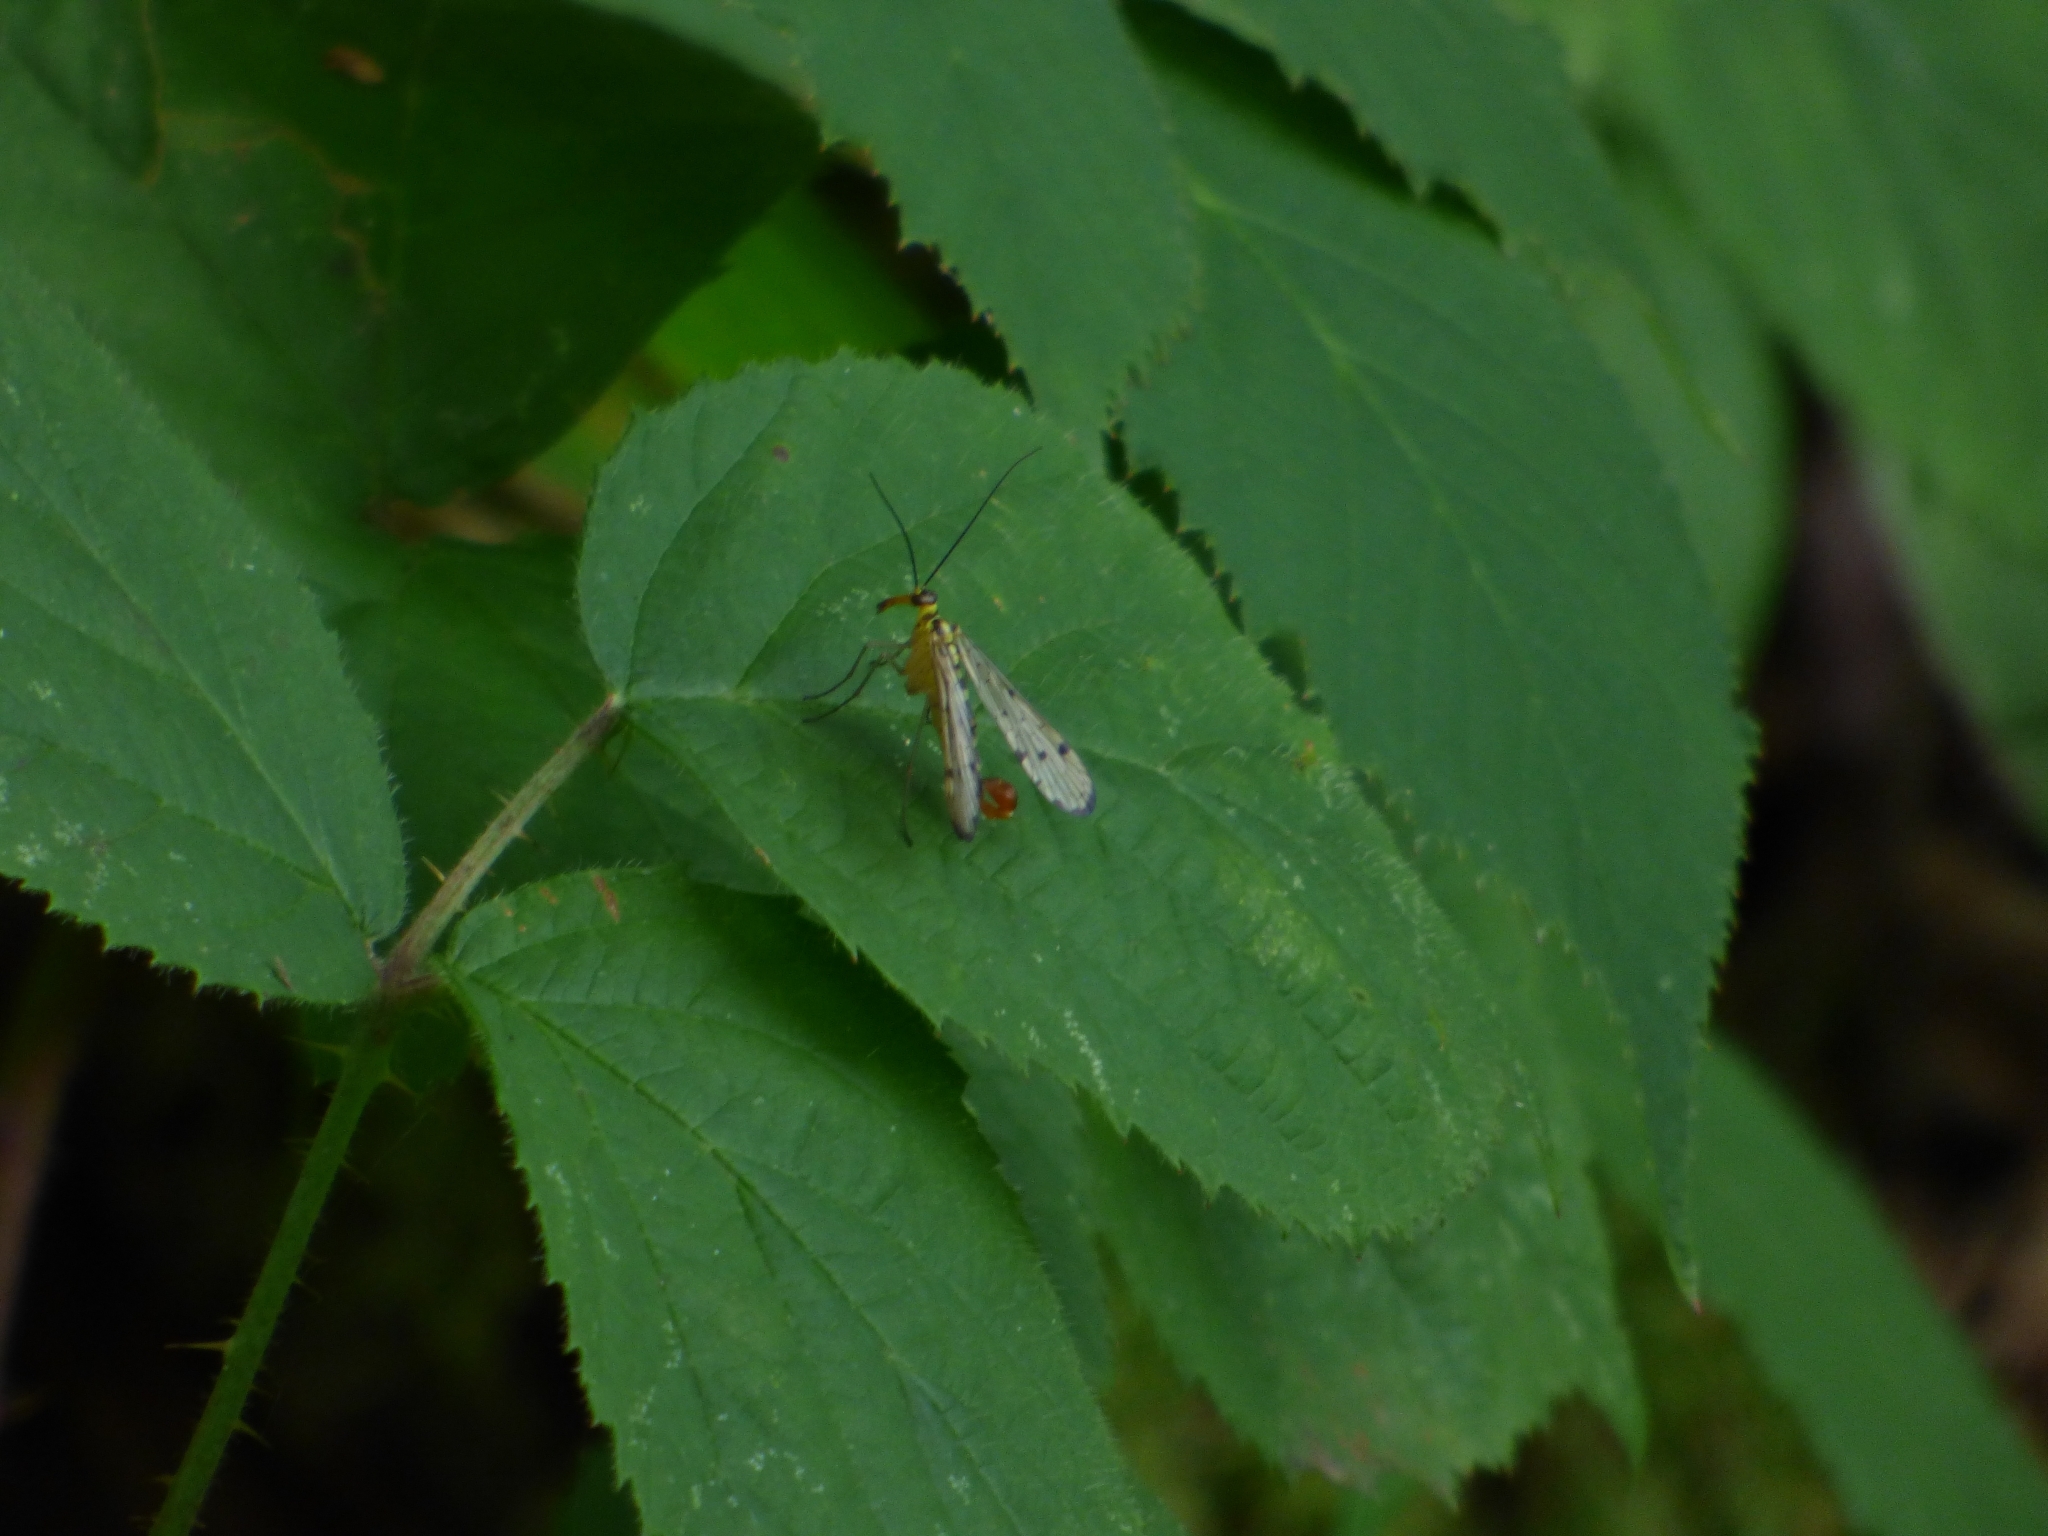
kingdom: Animalia
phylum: Arthropoda
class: Insecta
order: Mecoptera
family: Panorpidae
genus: Panorpa
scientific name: Panorpa germanica
